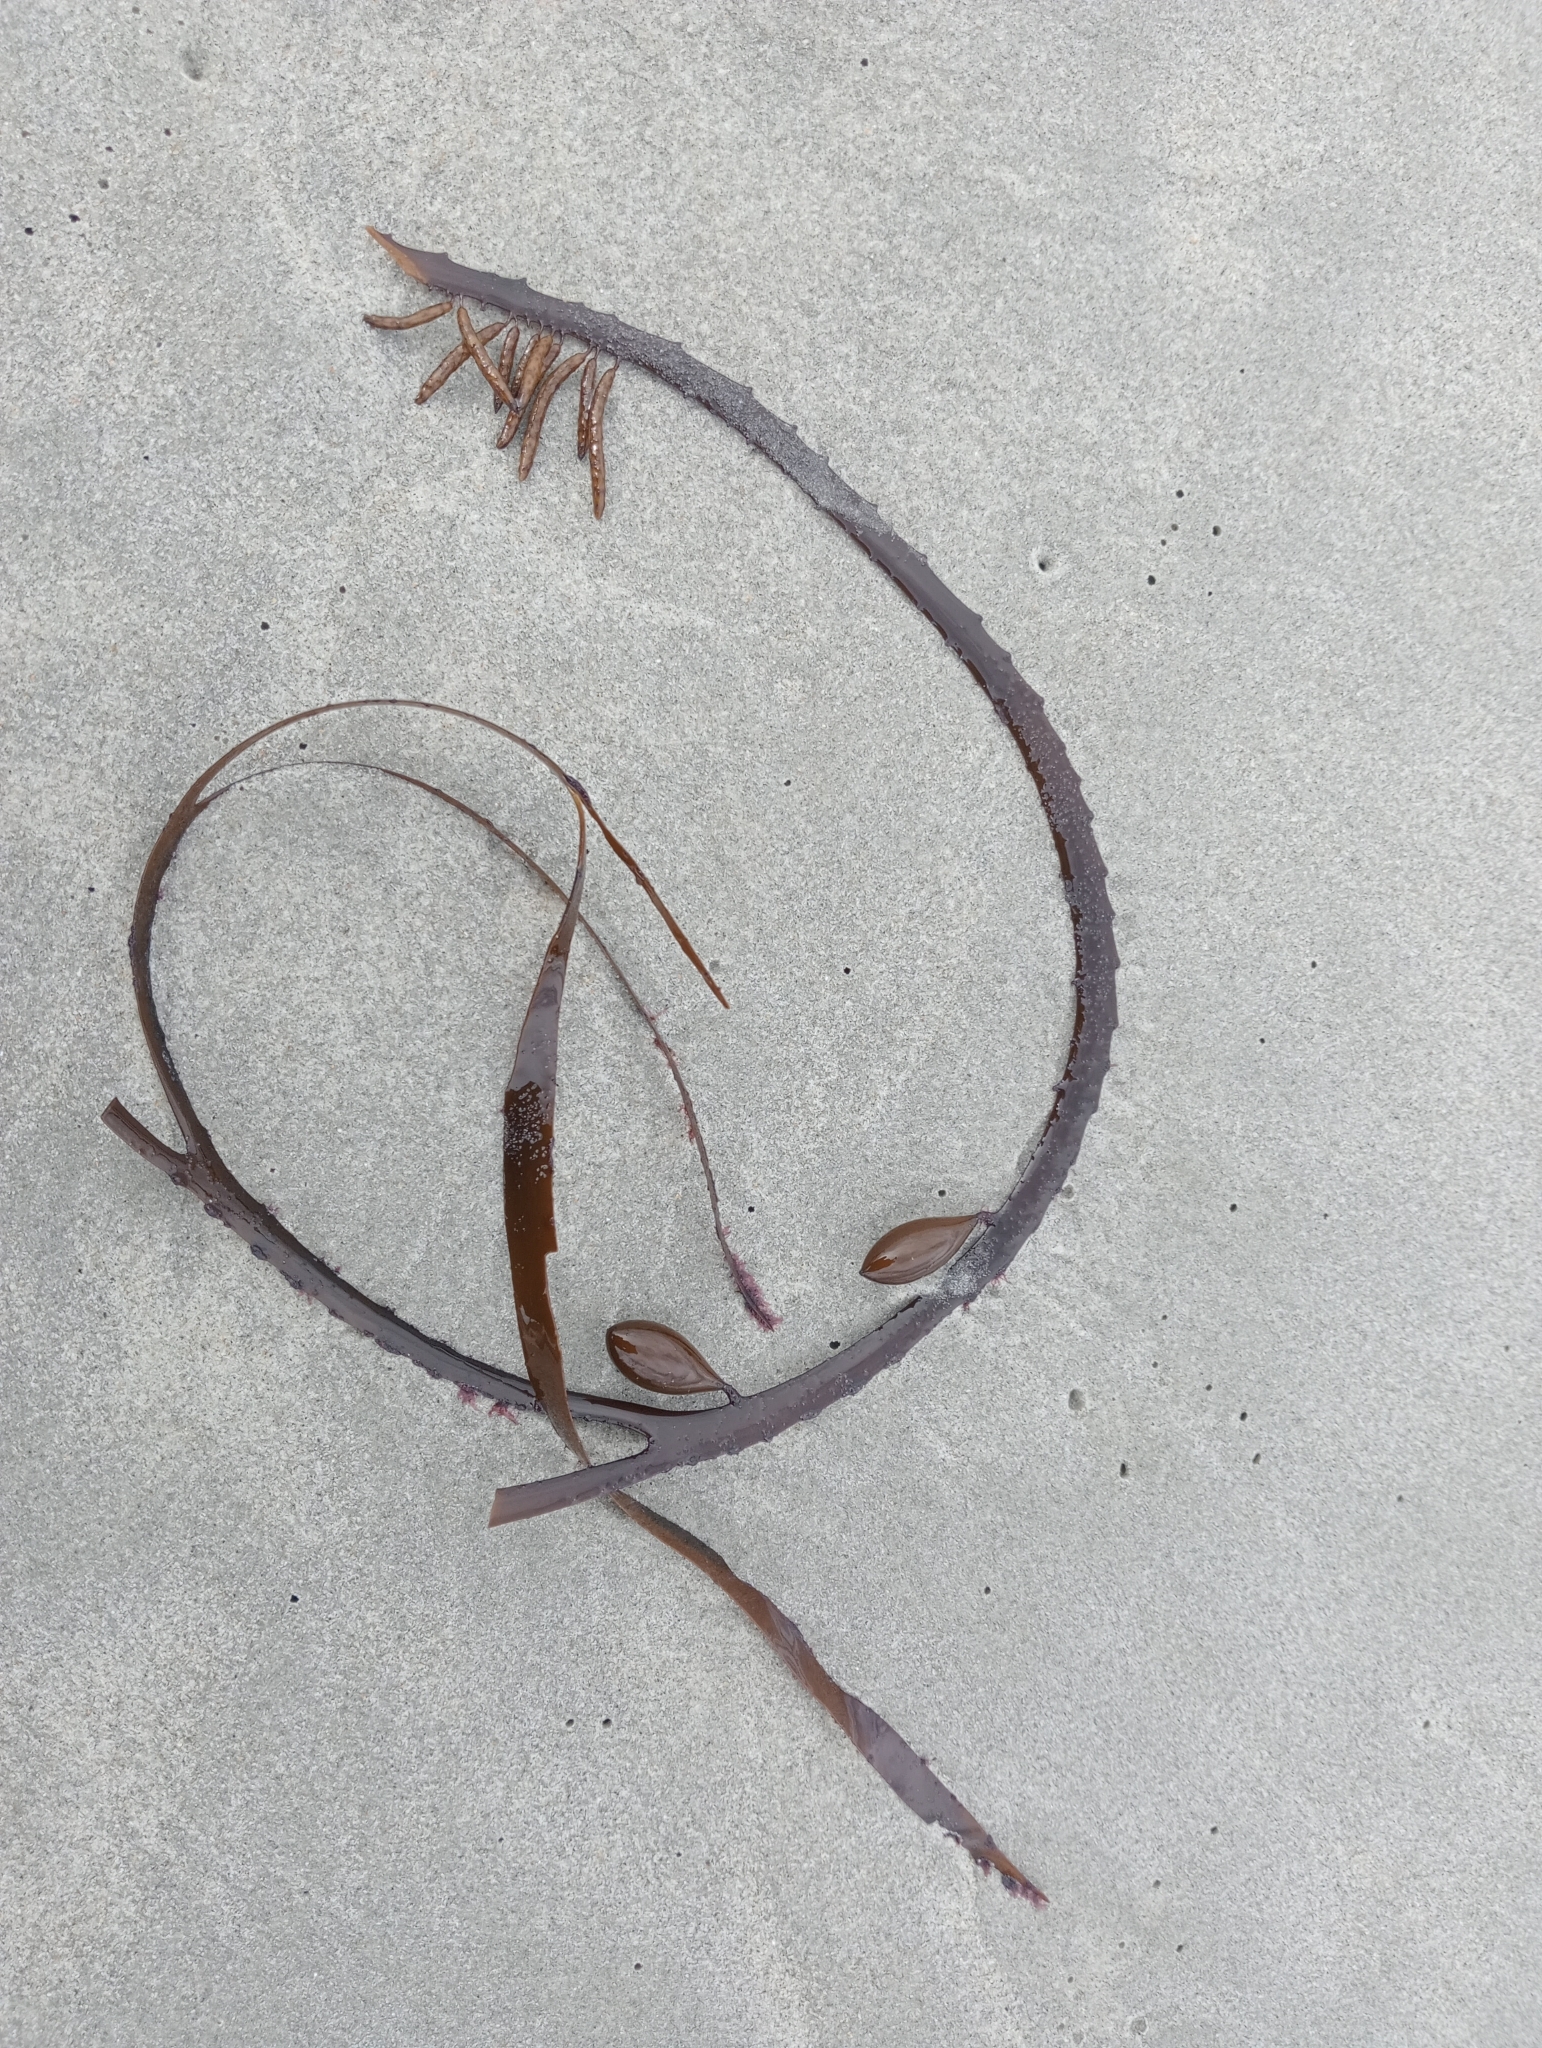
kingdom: Chromista
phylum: Ochrophyta
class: Phaeophyceae
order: Fucales
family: Seirococcaceae
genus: Marginariella
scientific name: Marginariella boryana
